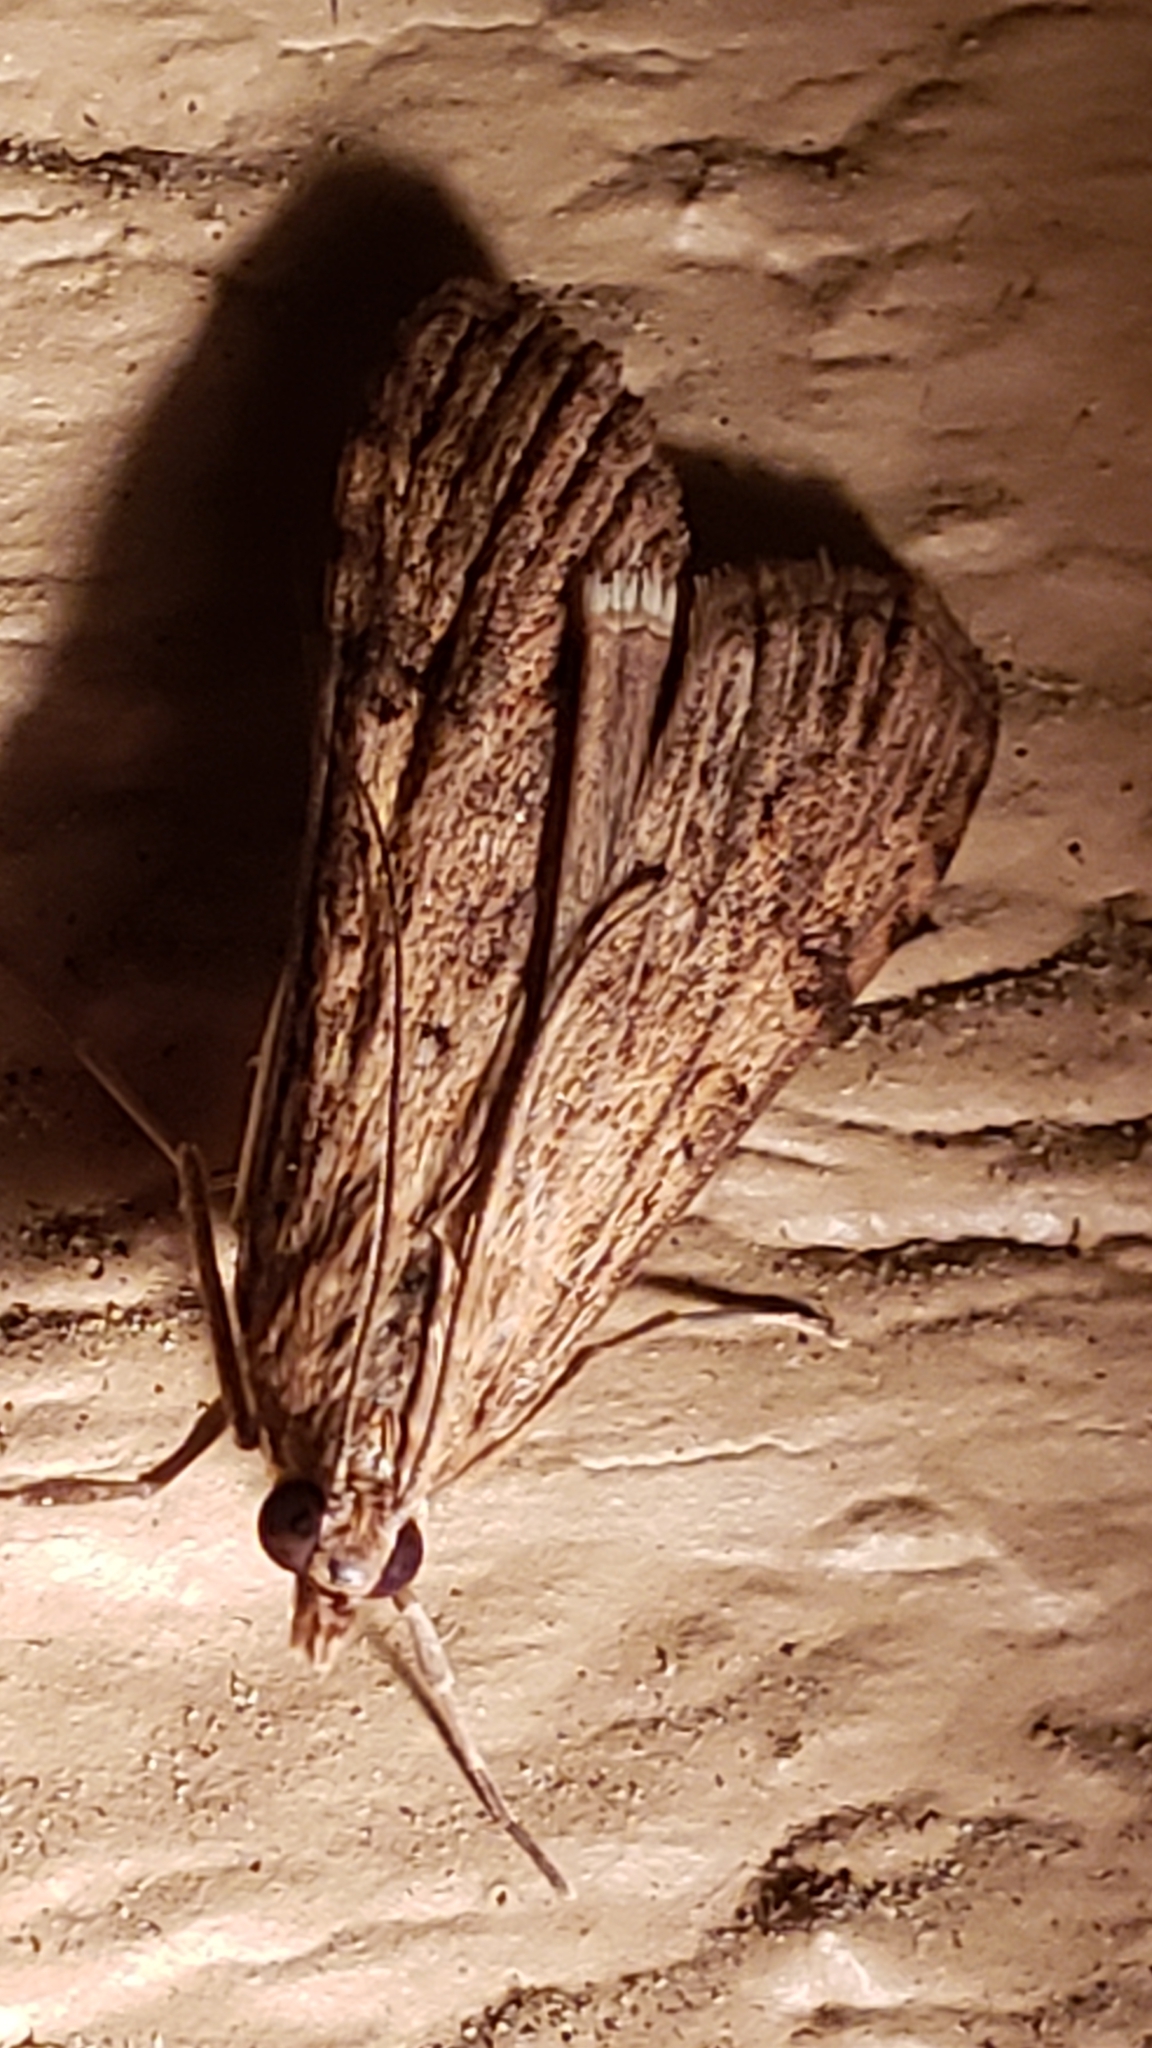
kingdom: Animalia
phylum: Arthropoda
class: Insecta
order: Lepidoptera
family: Crambidae
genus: Nomophila
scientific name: Nomophila nearctica
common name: American rush veneer
